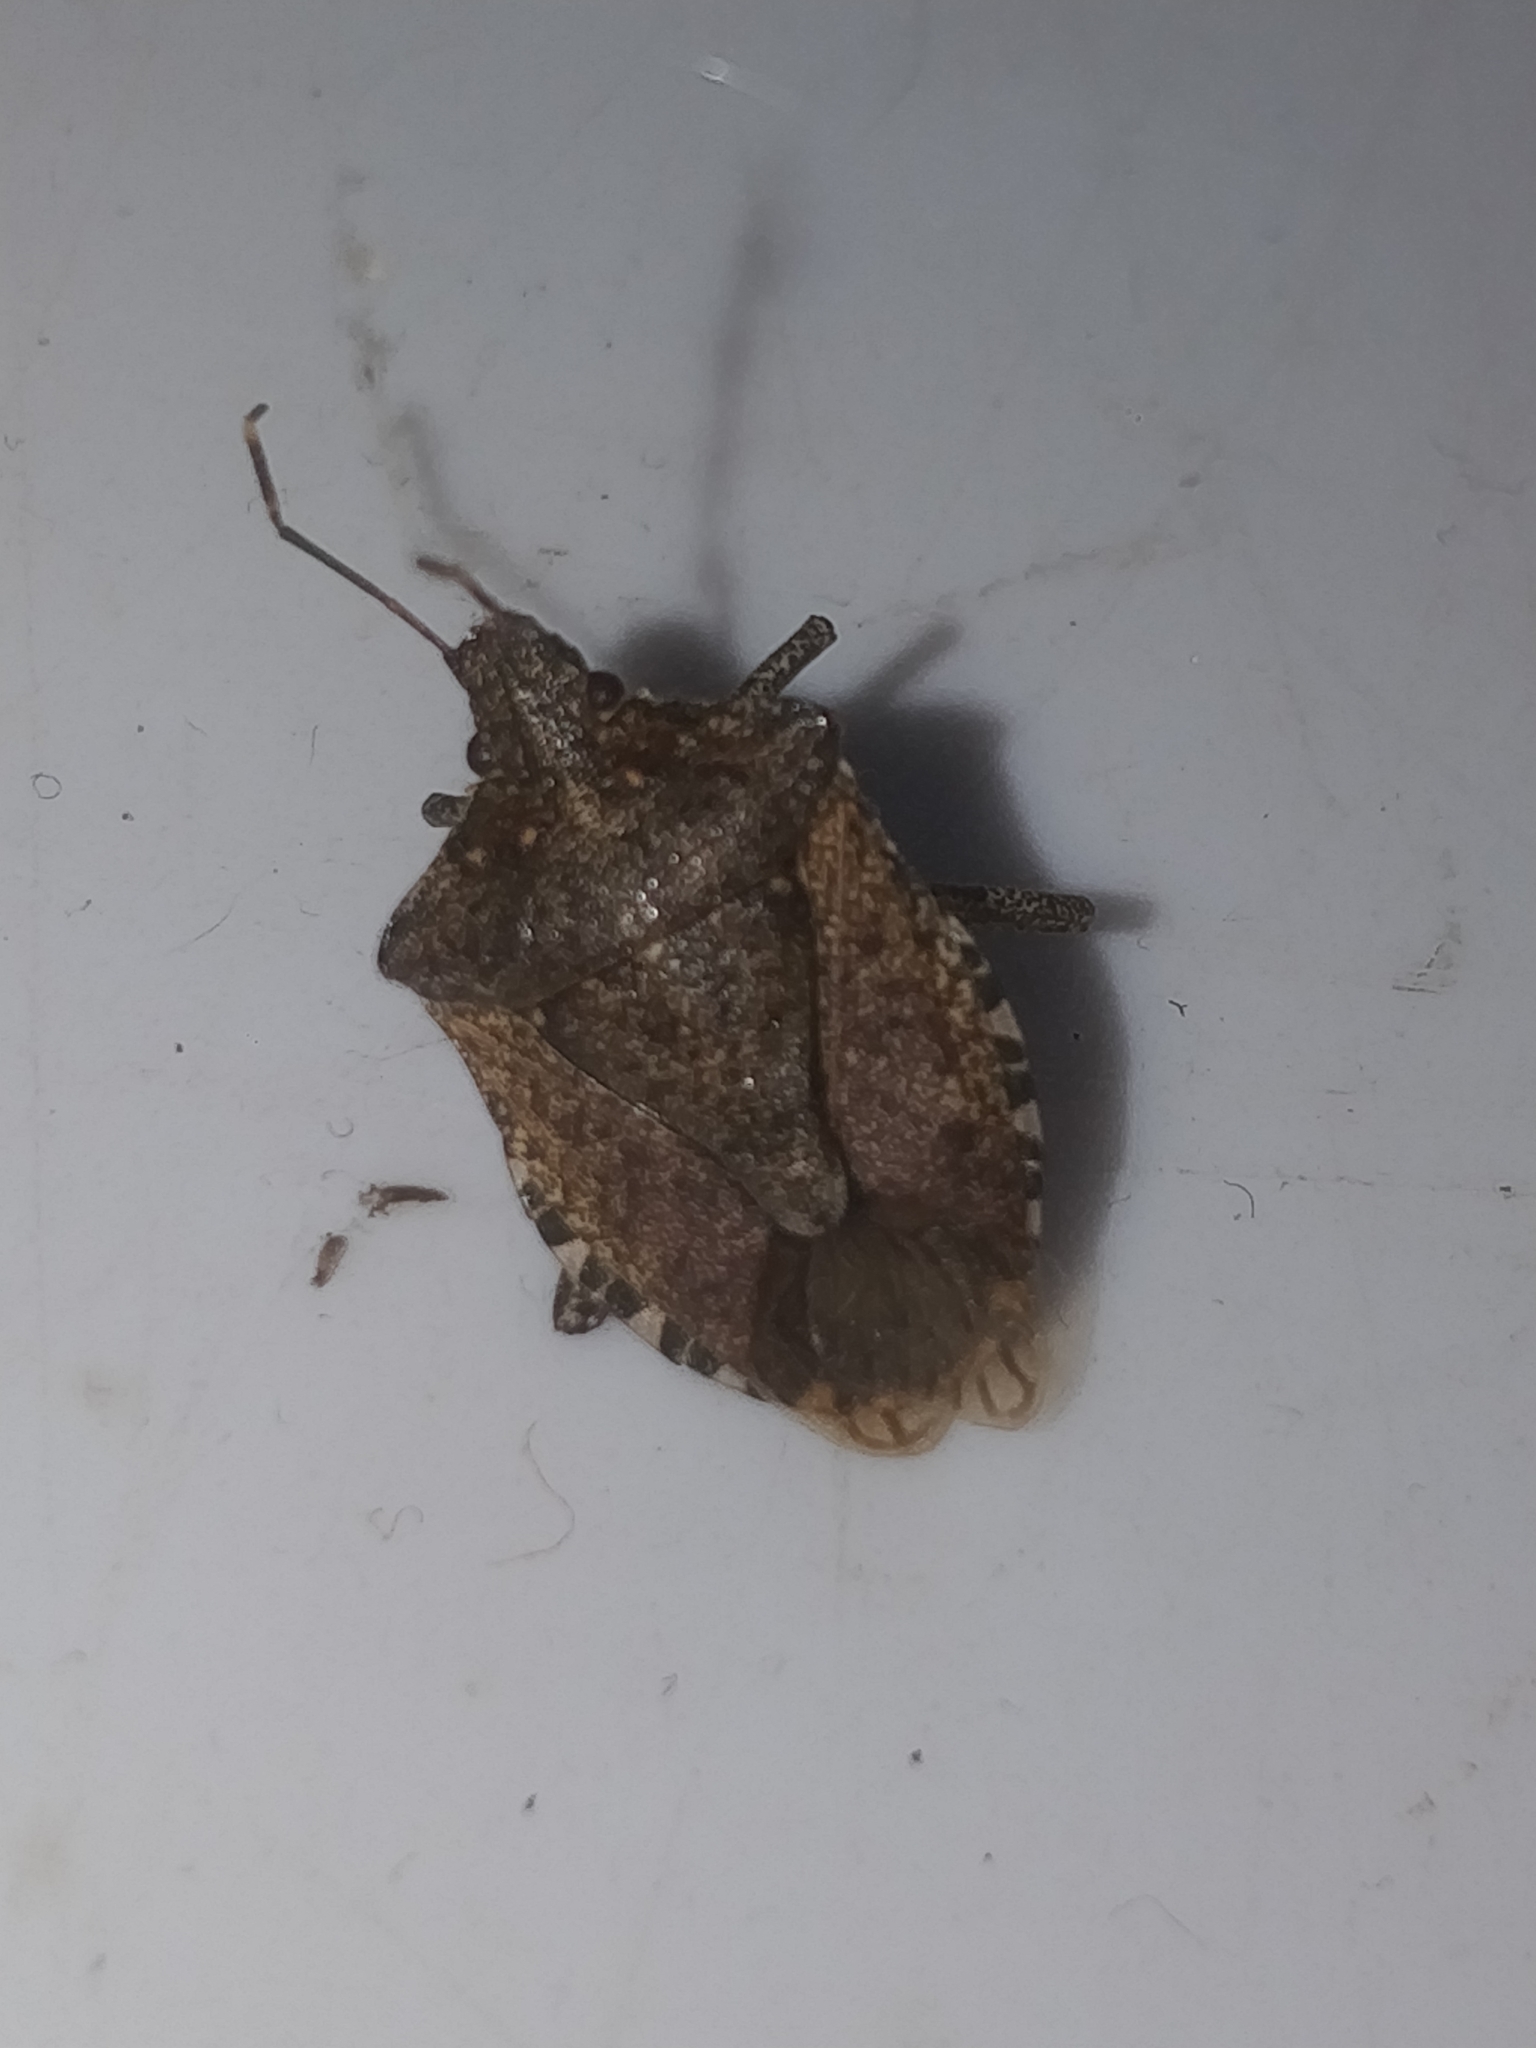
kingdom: Animalia
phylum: Arthropoda
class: Insecta
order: Hemiptera
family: Pentatomidae
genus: Halyomorpha
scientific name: Halyomorpha halys
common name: Brown marmorated stink bug
